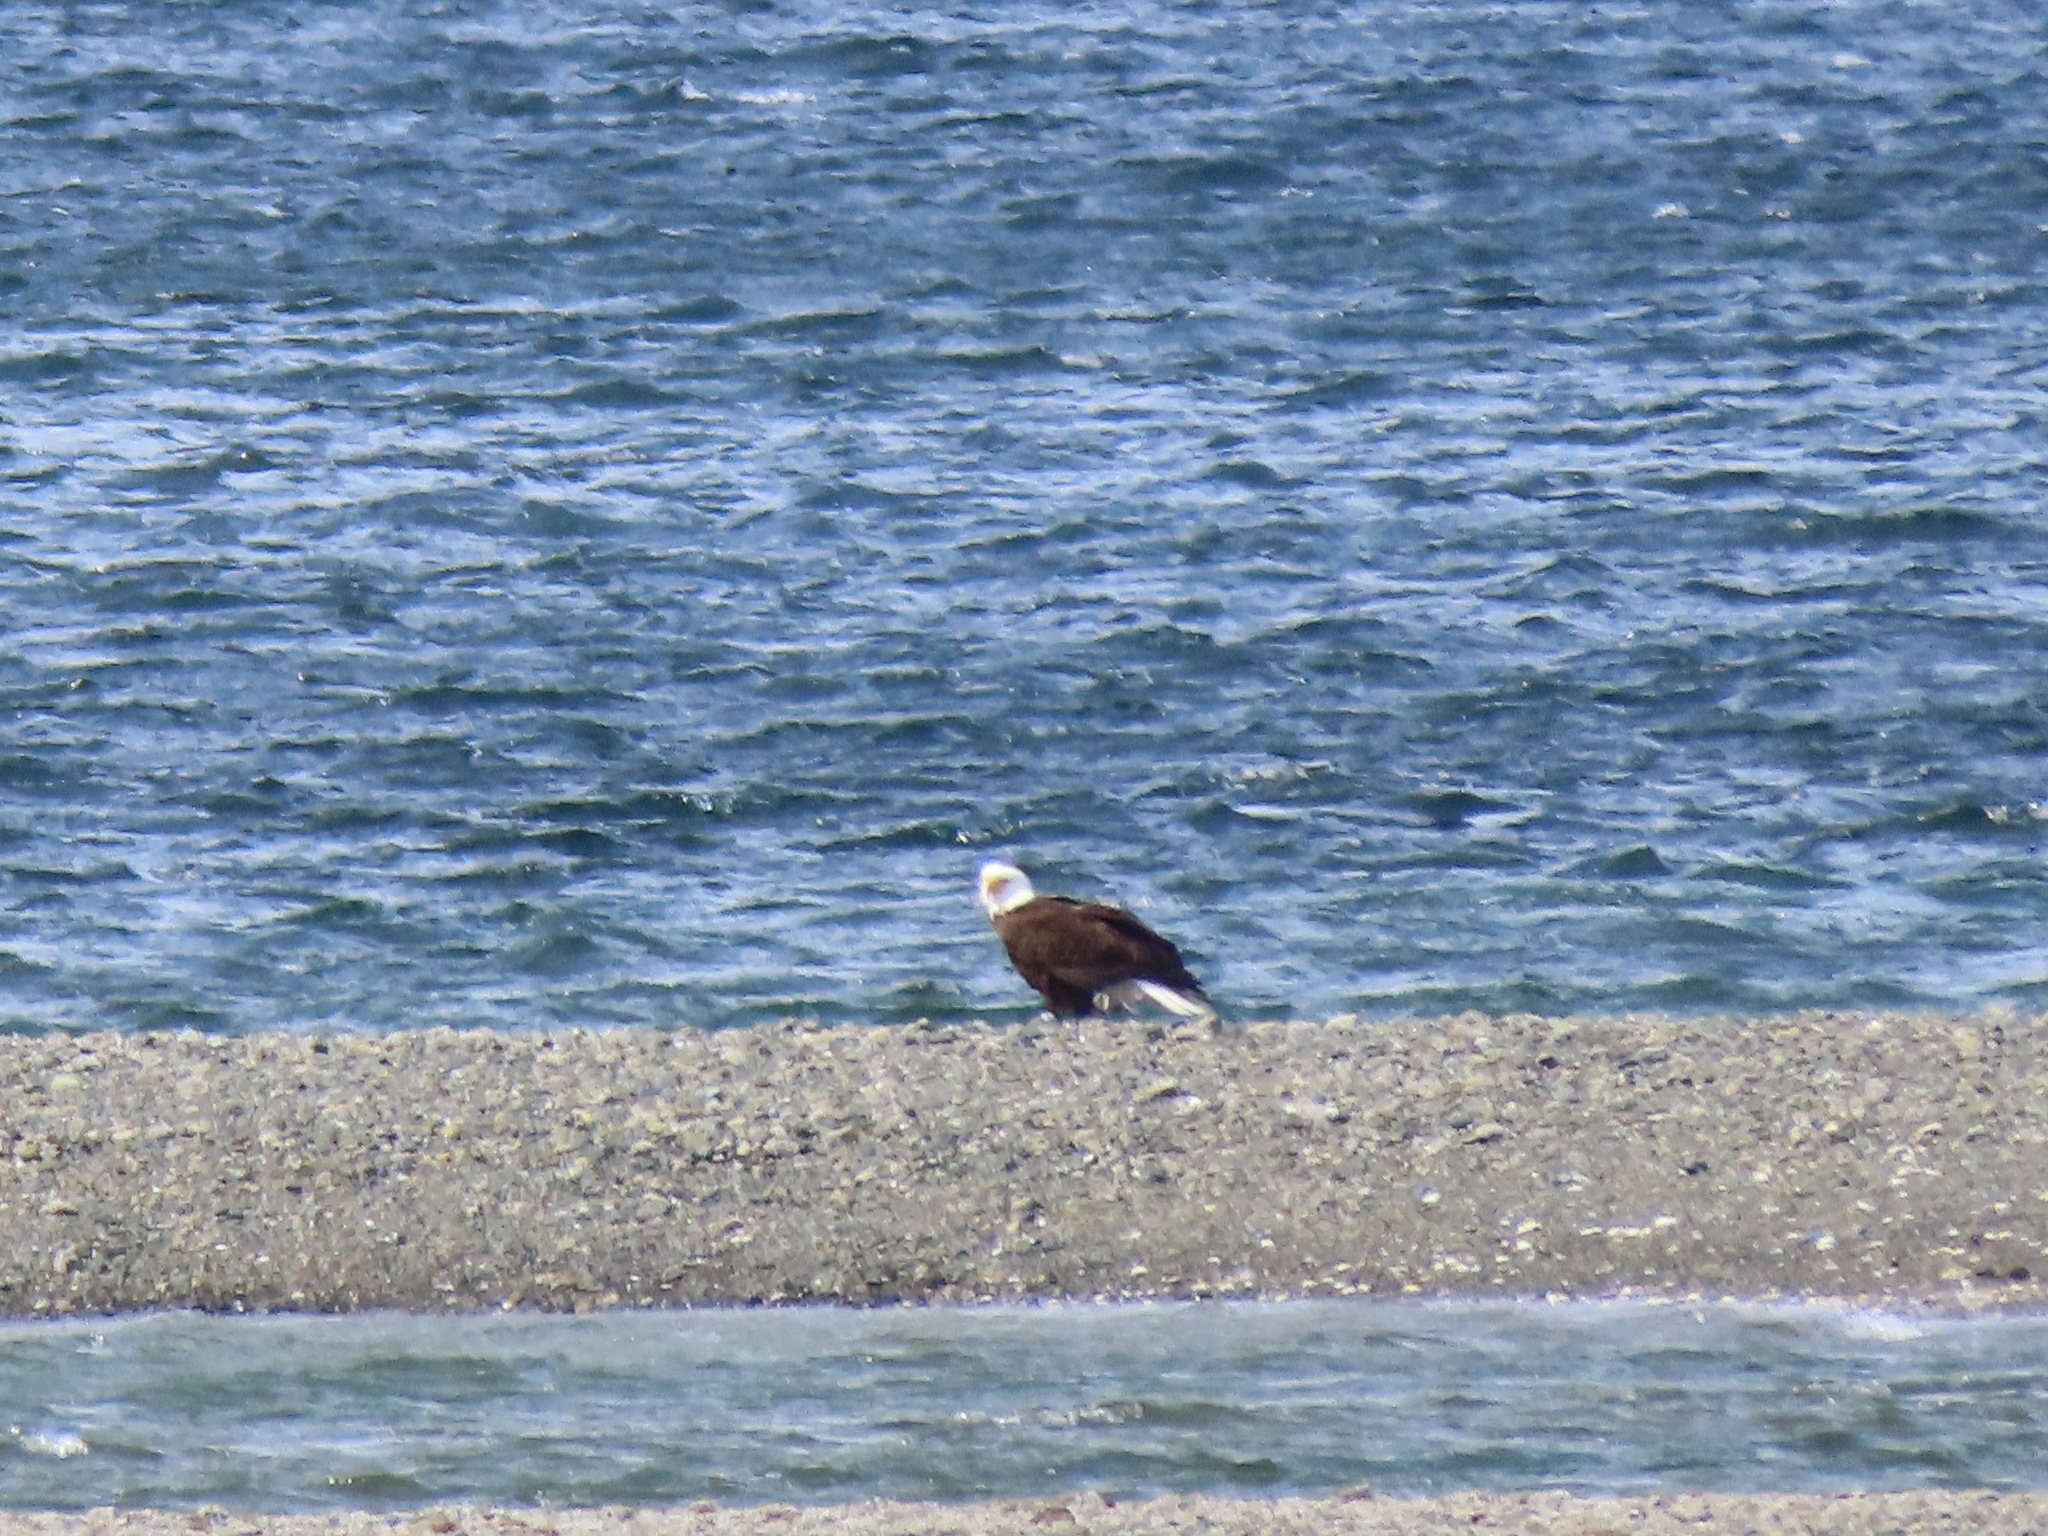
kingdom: Animalia
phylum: Chordata
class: Aves
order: Accipitriformes
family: Accipitridae
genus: Haliaeetus
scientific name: Haliaeetus leucocephalus
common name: Bald eagle
